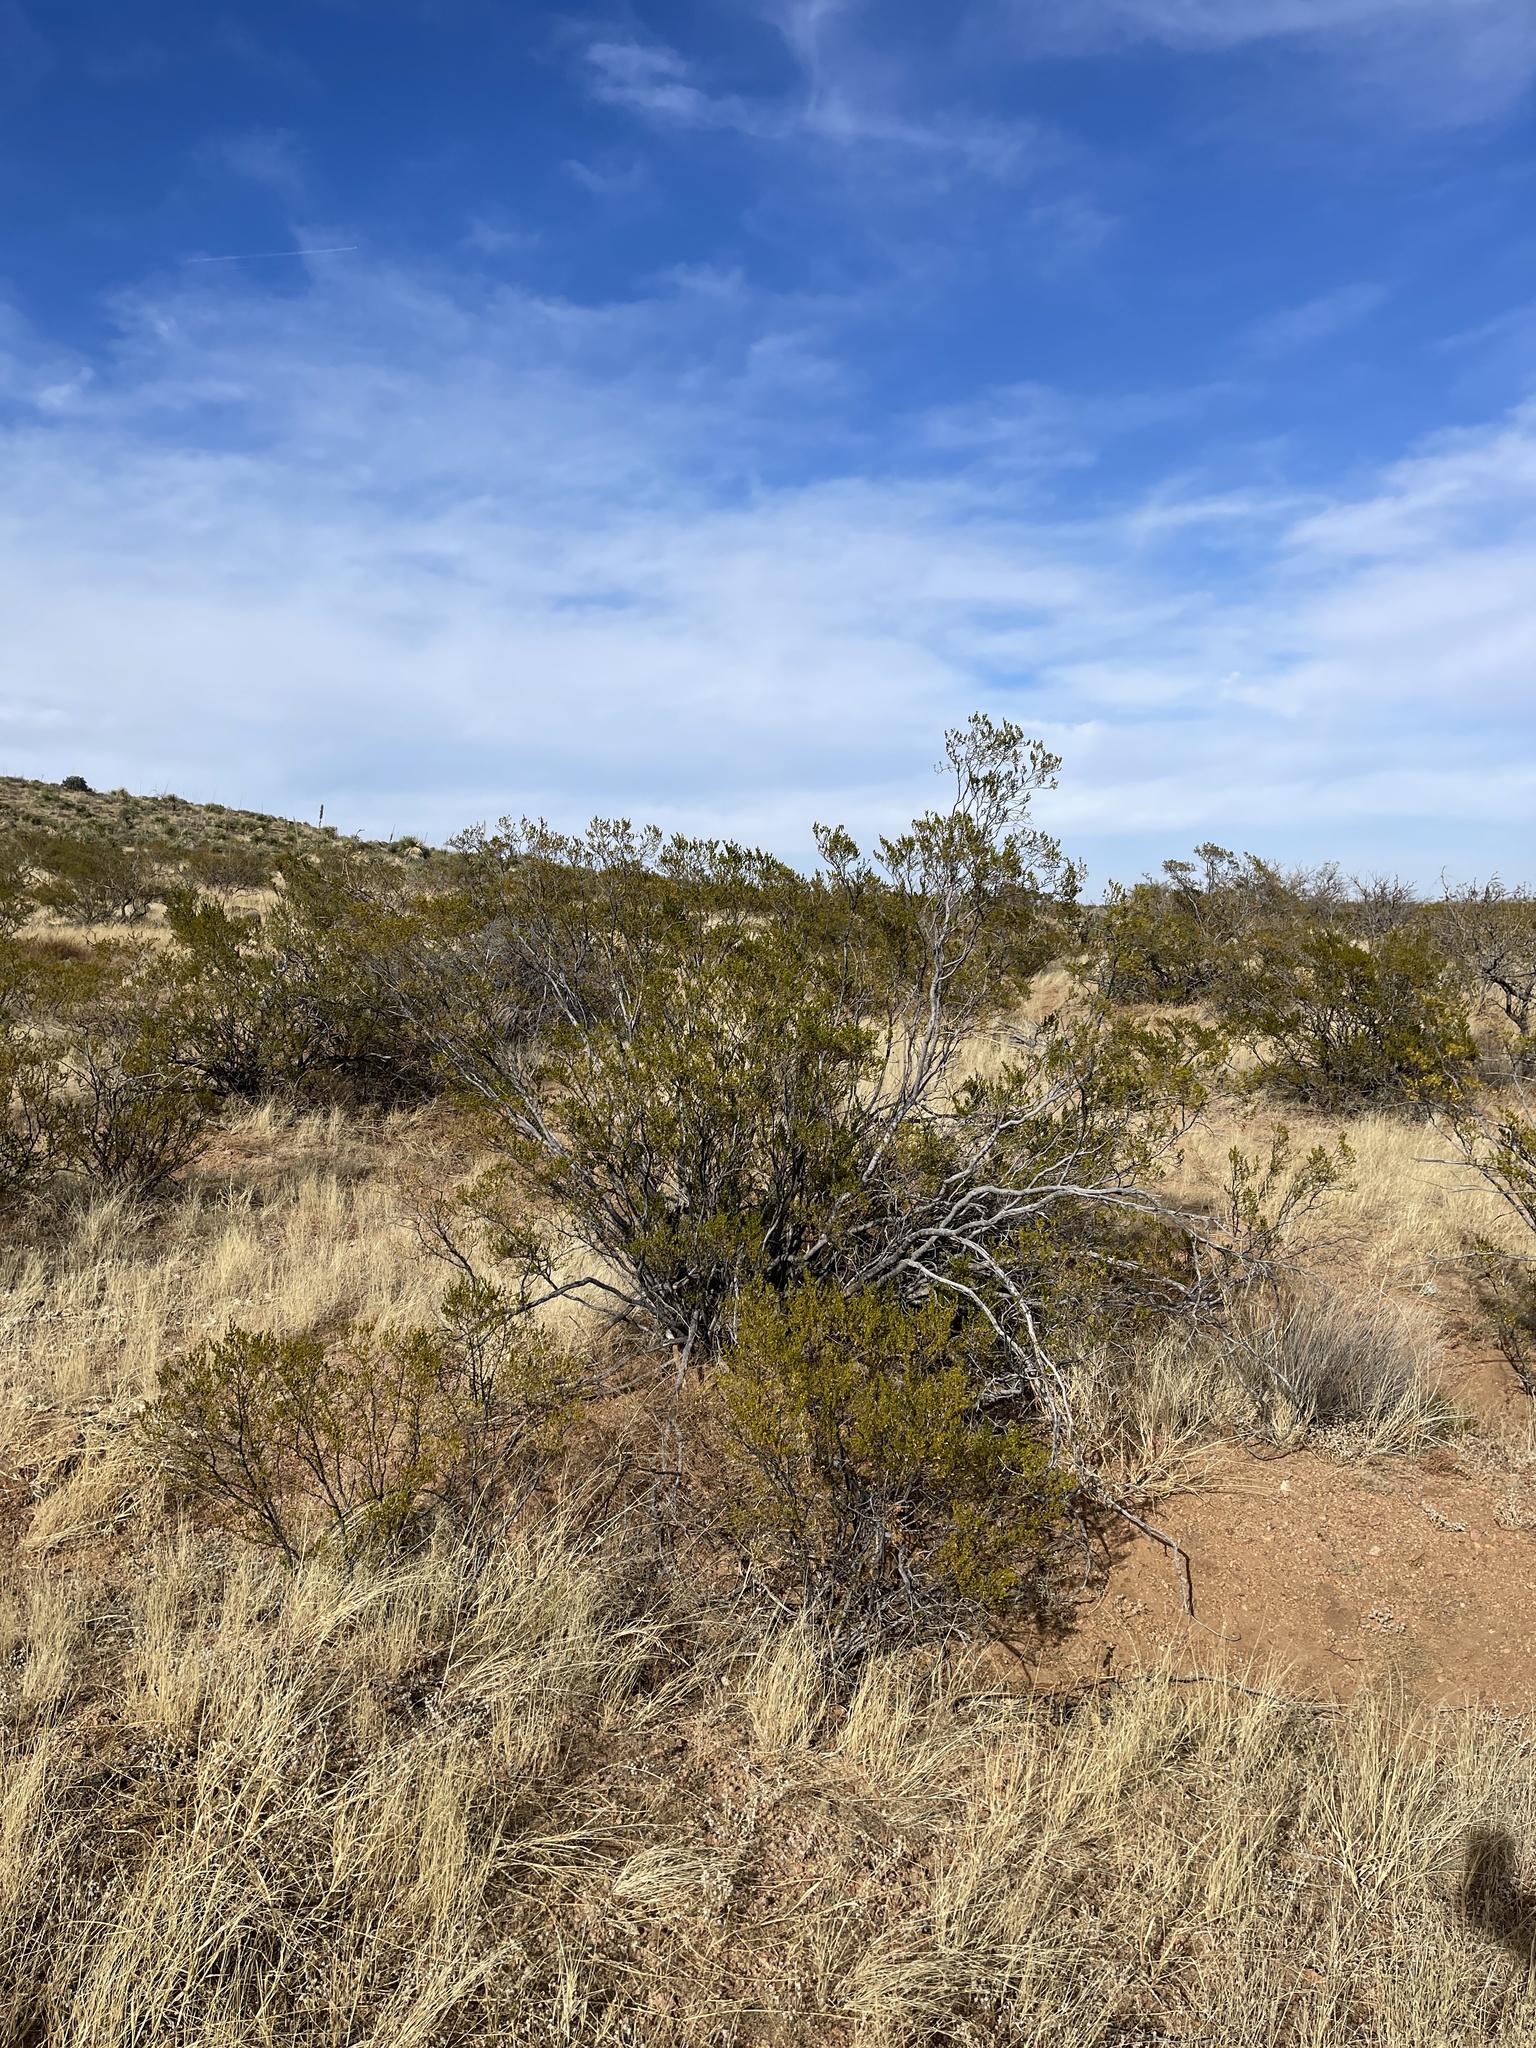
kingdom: Plantae
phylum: Tracheophyta
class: Magnoliopsida
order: Zygophyllales
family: Zygophyllaceae
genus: Larrea
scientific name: Larrea tridentata
